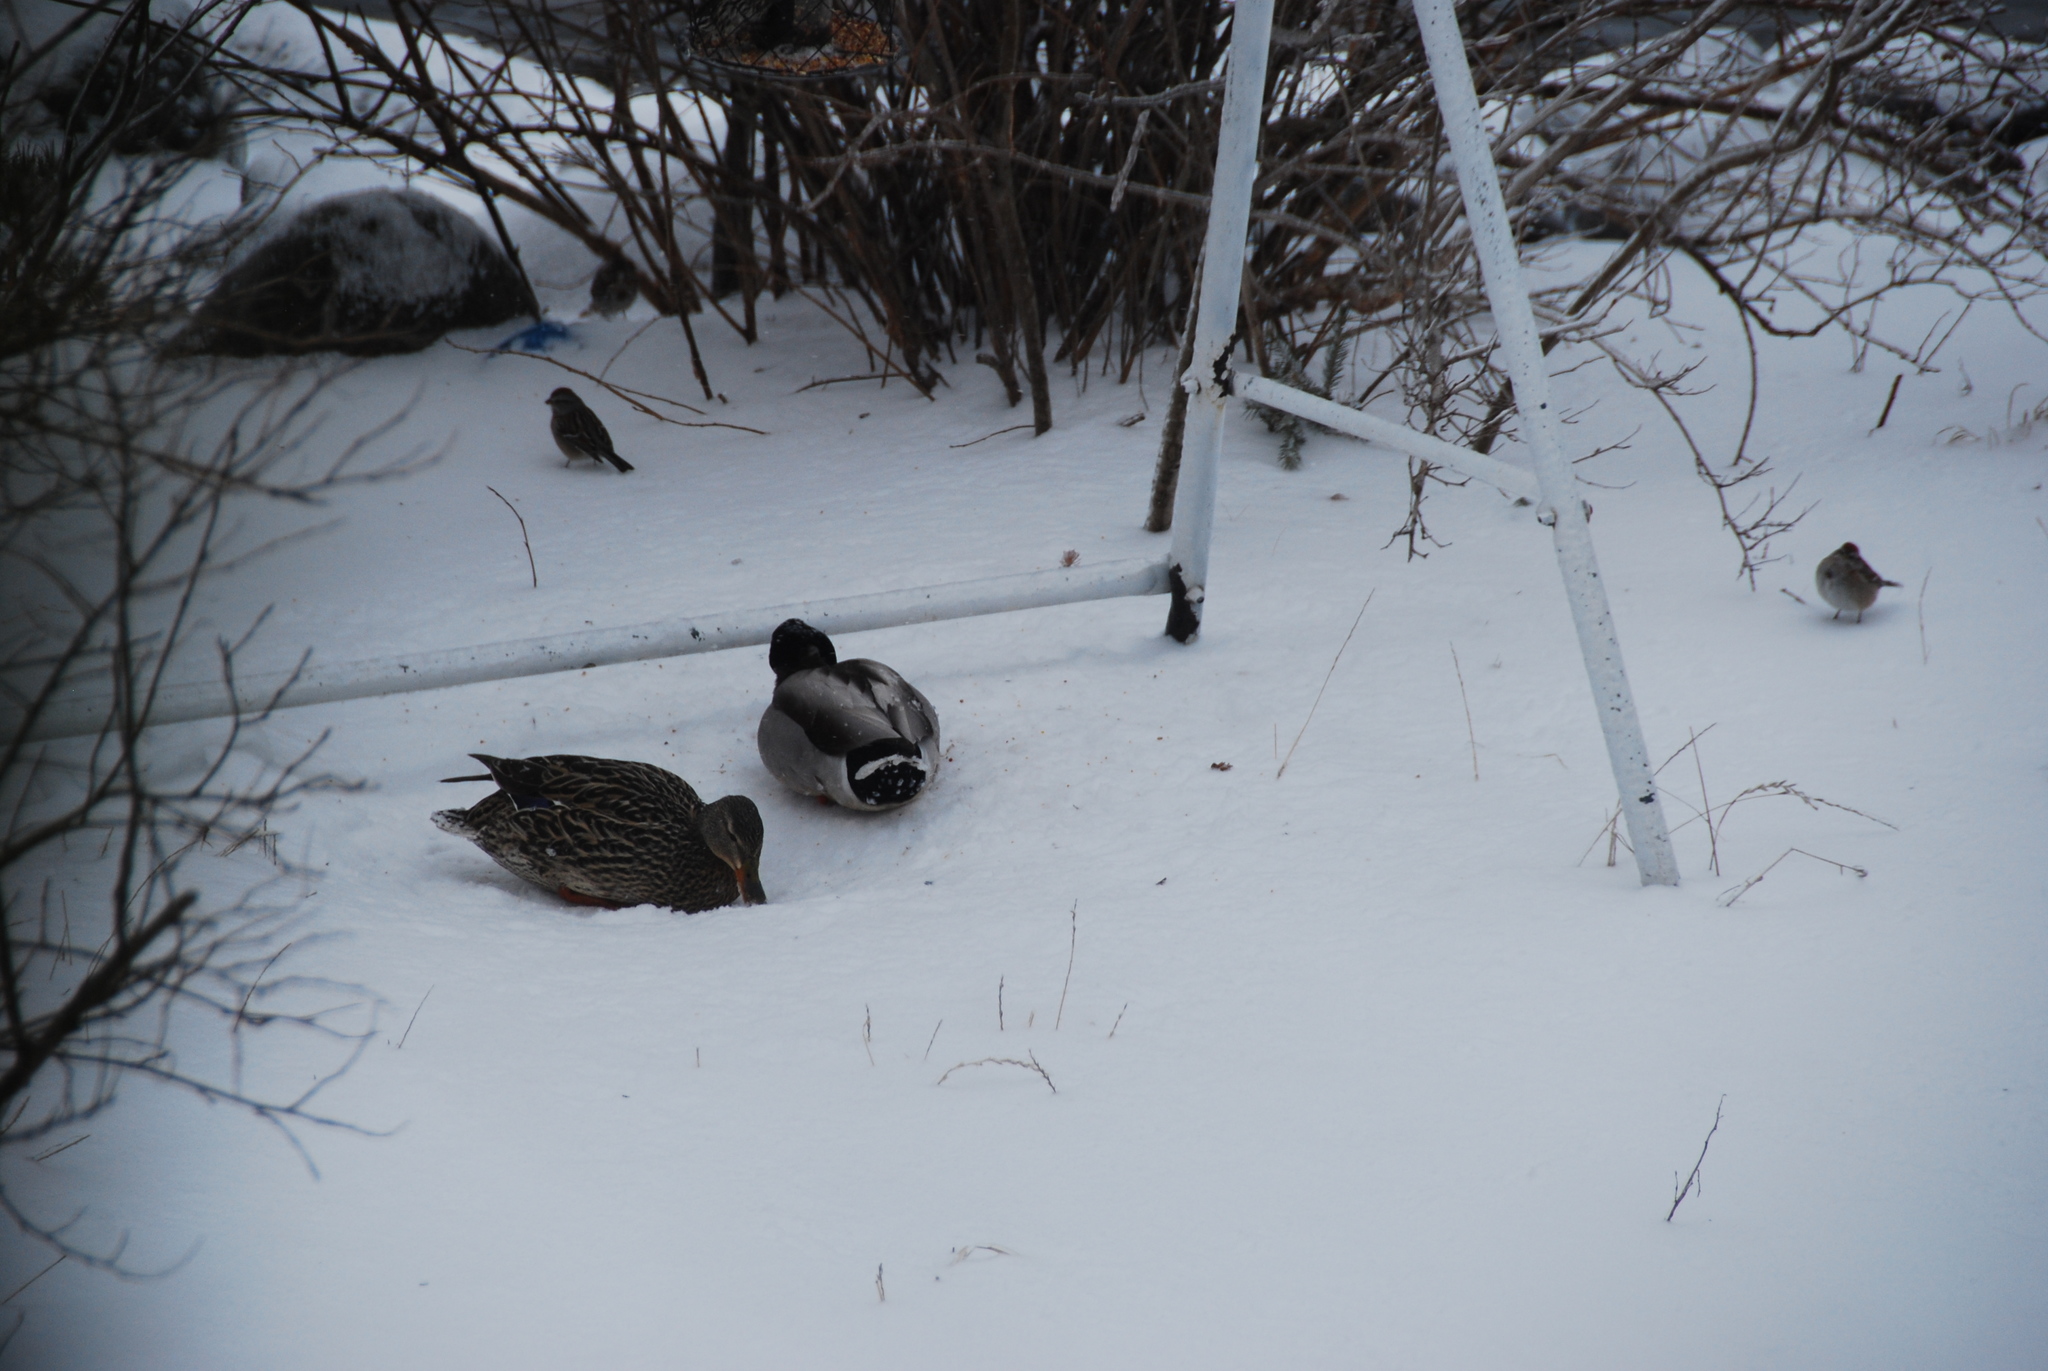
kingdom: Animalia
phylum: Chordata
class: Aves
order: Anseriformes
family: Anatidae
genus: Anas
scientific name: Anas platyrhynchos
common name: Mallard
